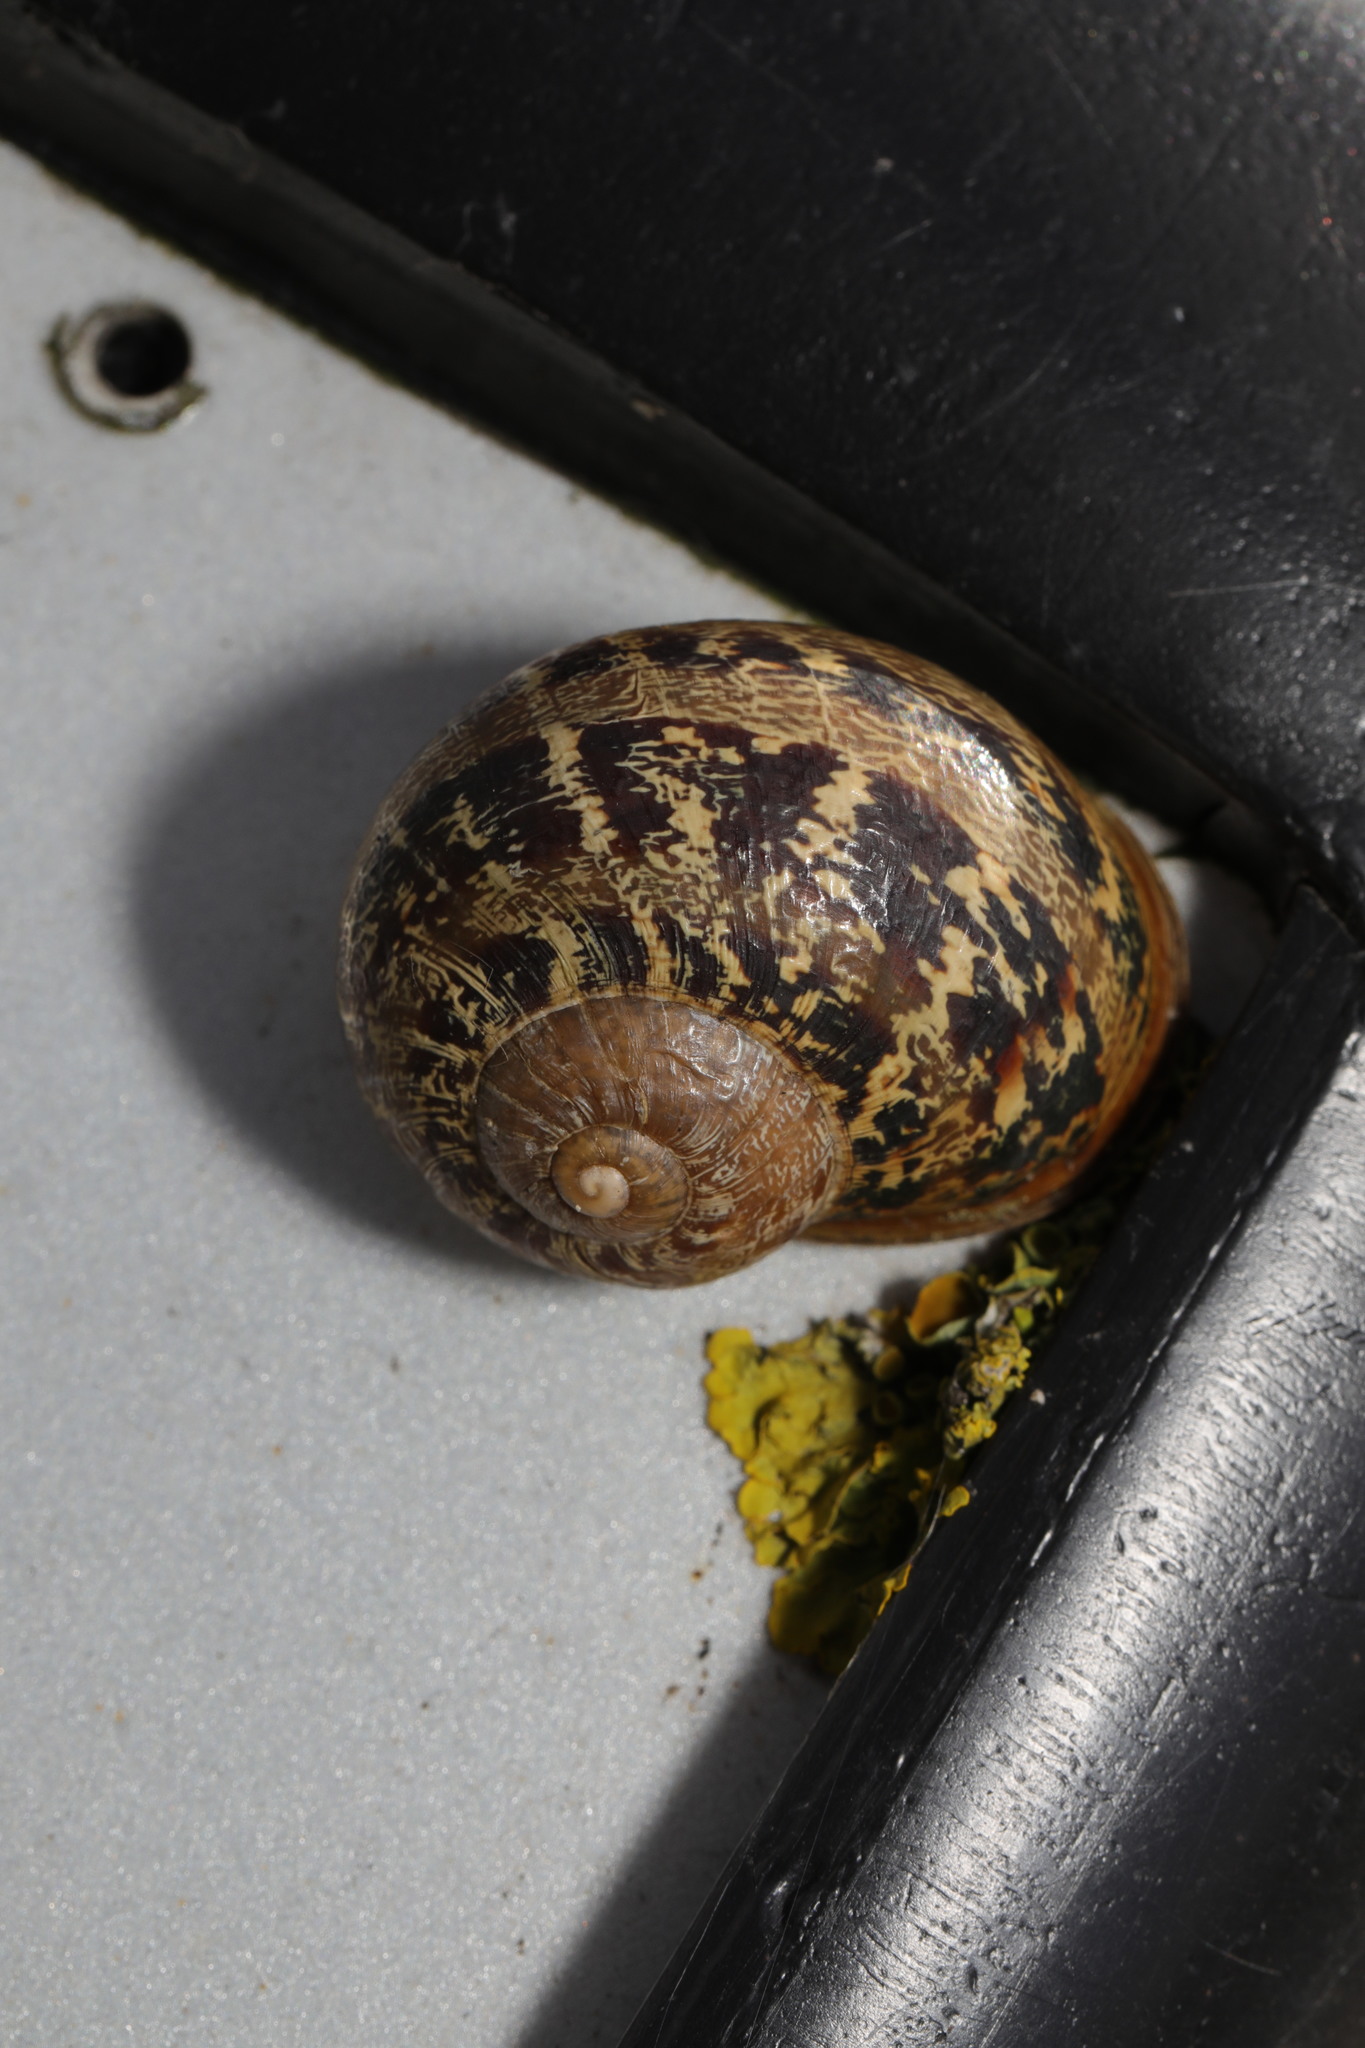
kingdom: Animalia
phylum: Mollusca
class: Gastropoda
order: Stylommatophora
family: Helicidae
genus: Cornu
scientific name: Cornu aspersum
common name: Brown garden snail
